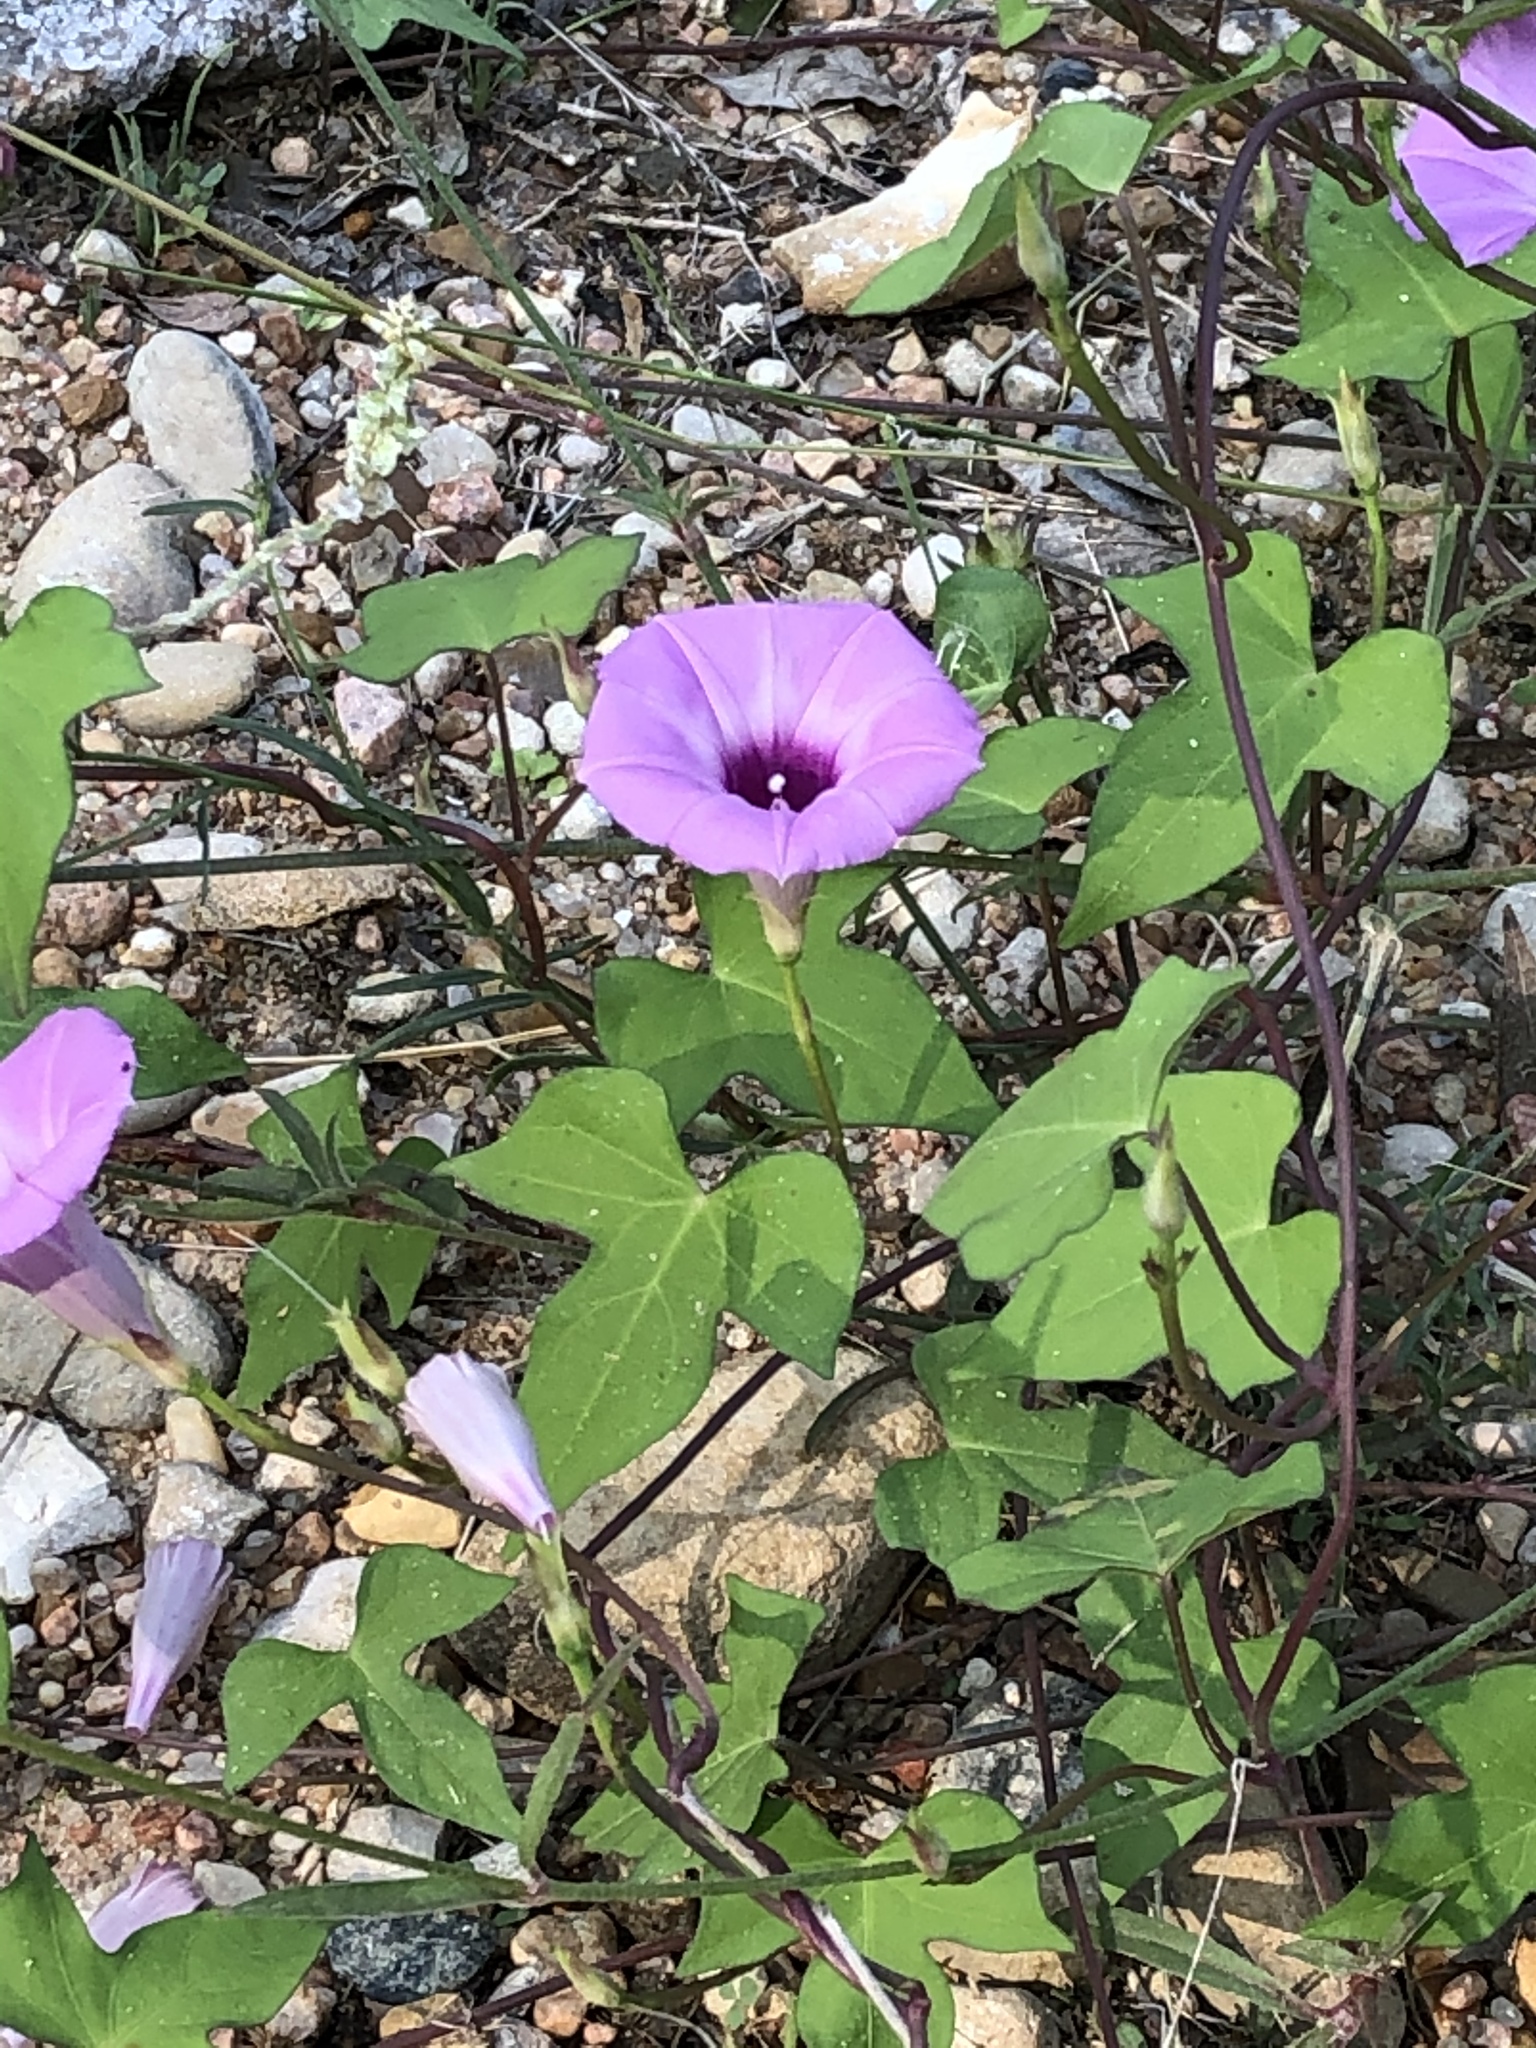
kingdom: Plantae
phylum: Tracheophyta
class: Magnoliopsida
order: Solanales
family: Convolvulaceae
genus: Ipomoea
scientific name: Ipomoea cordatotriloba
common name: Cotton morning glory
